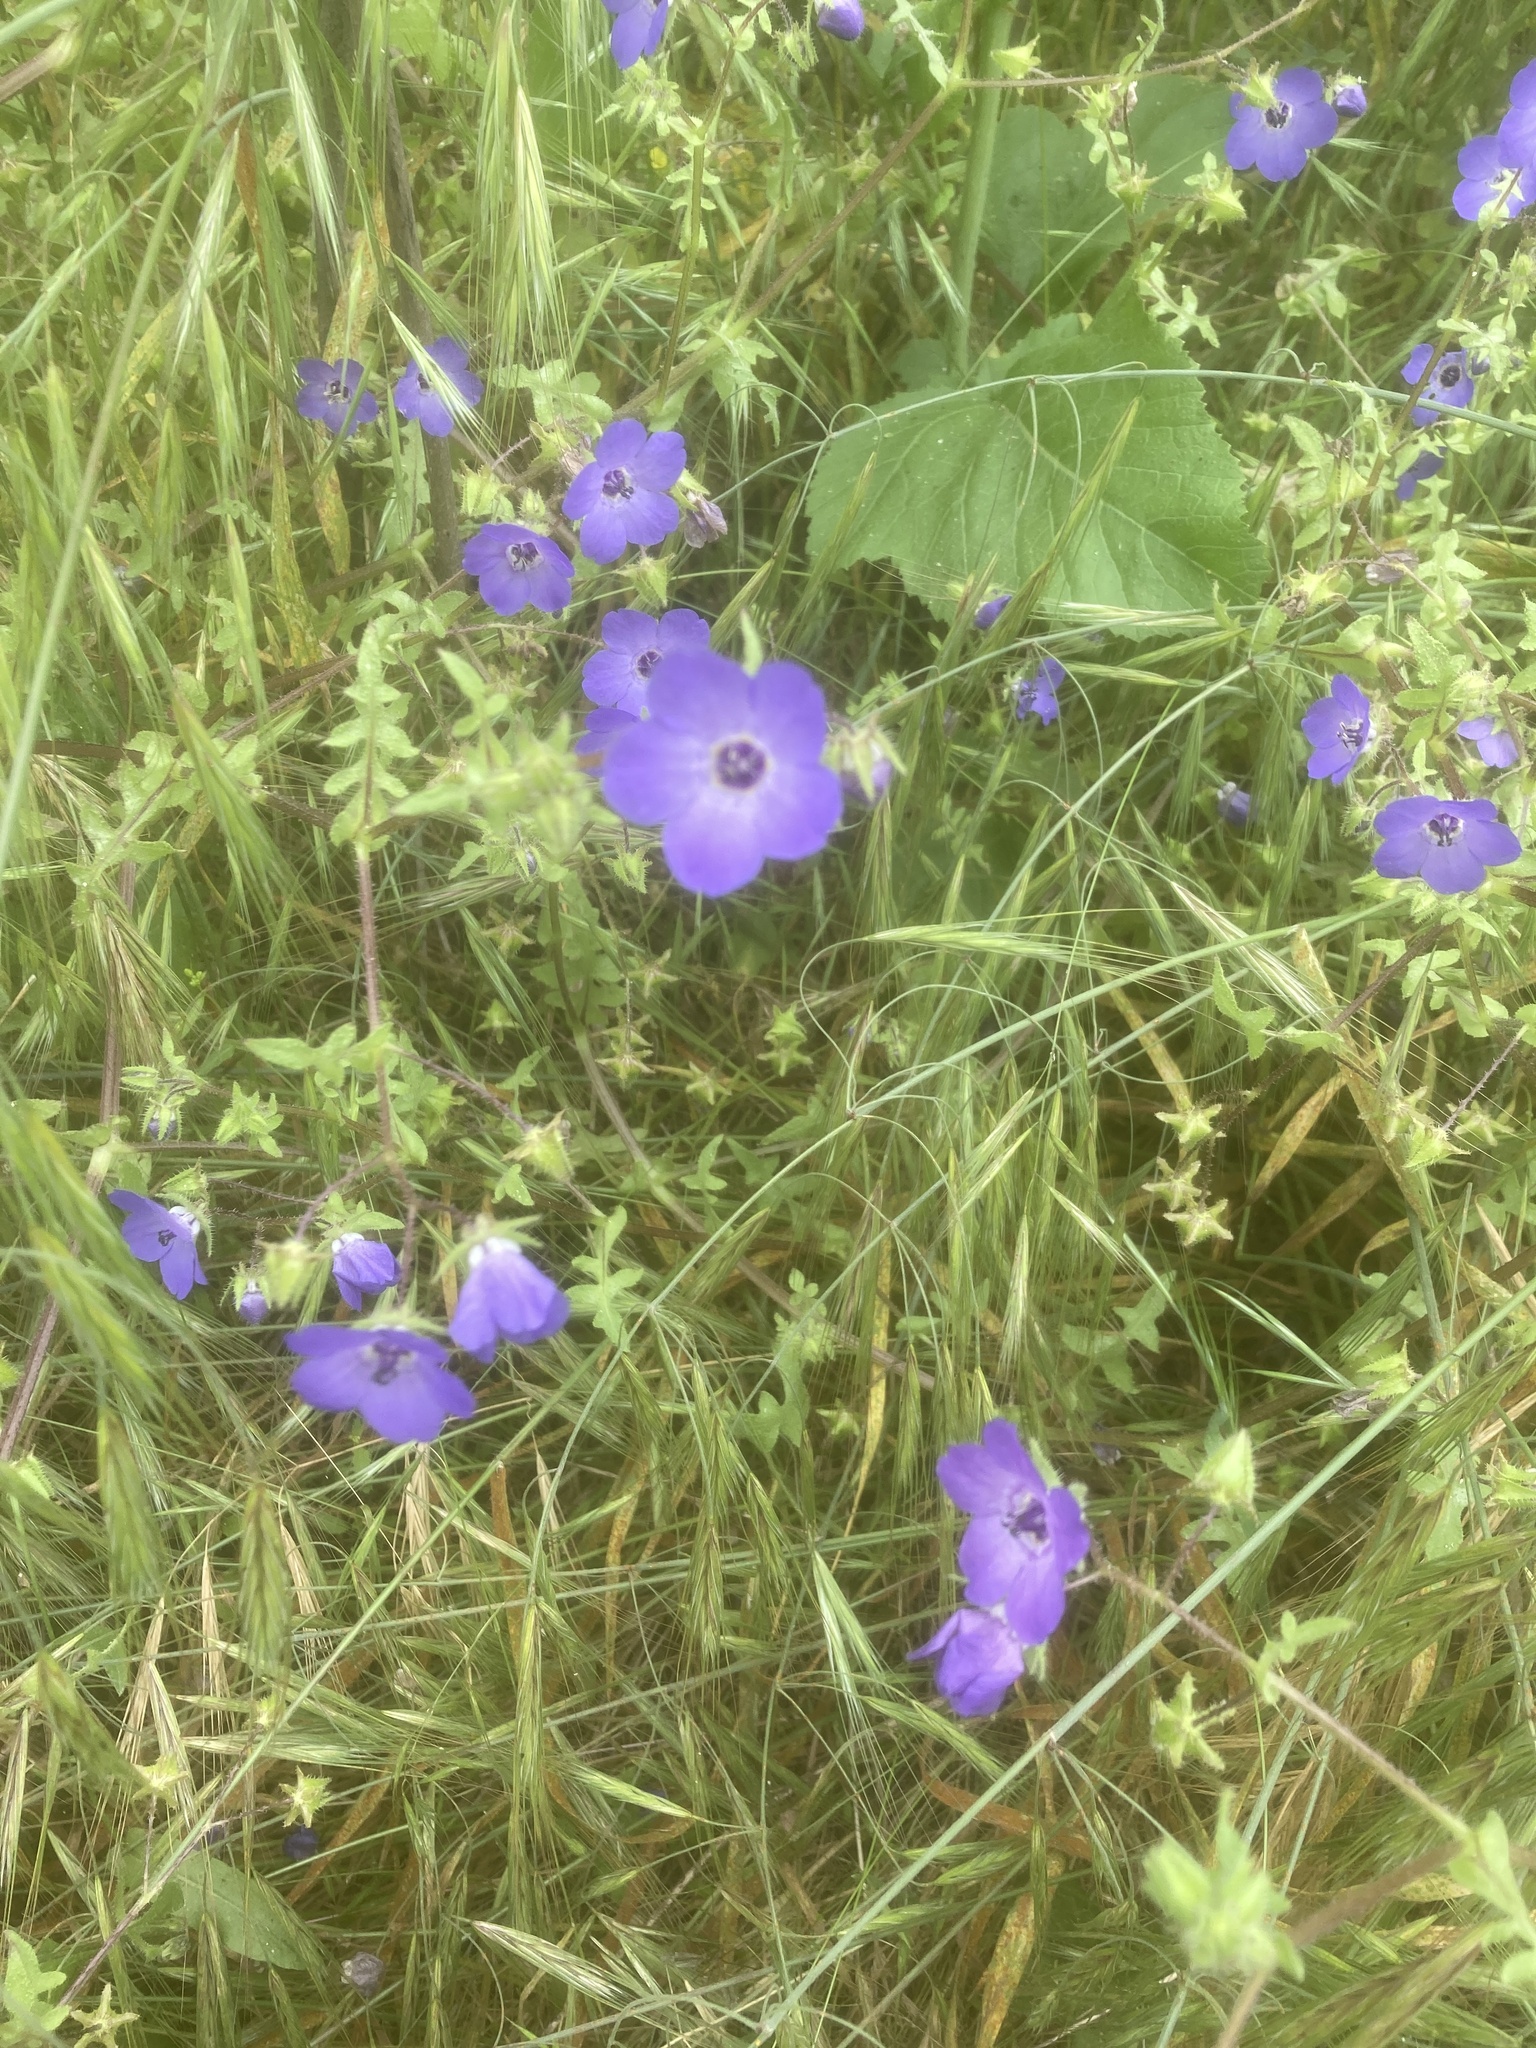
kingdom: Plantae
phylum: Tracheophyta
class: Magnoliopsida
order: Boraginales
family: Hydrophyllaceae
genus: Pholistoma
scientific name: Pholistoma auritum
